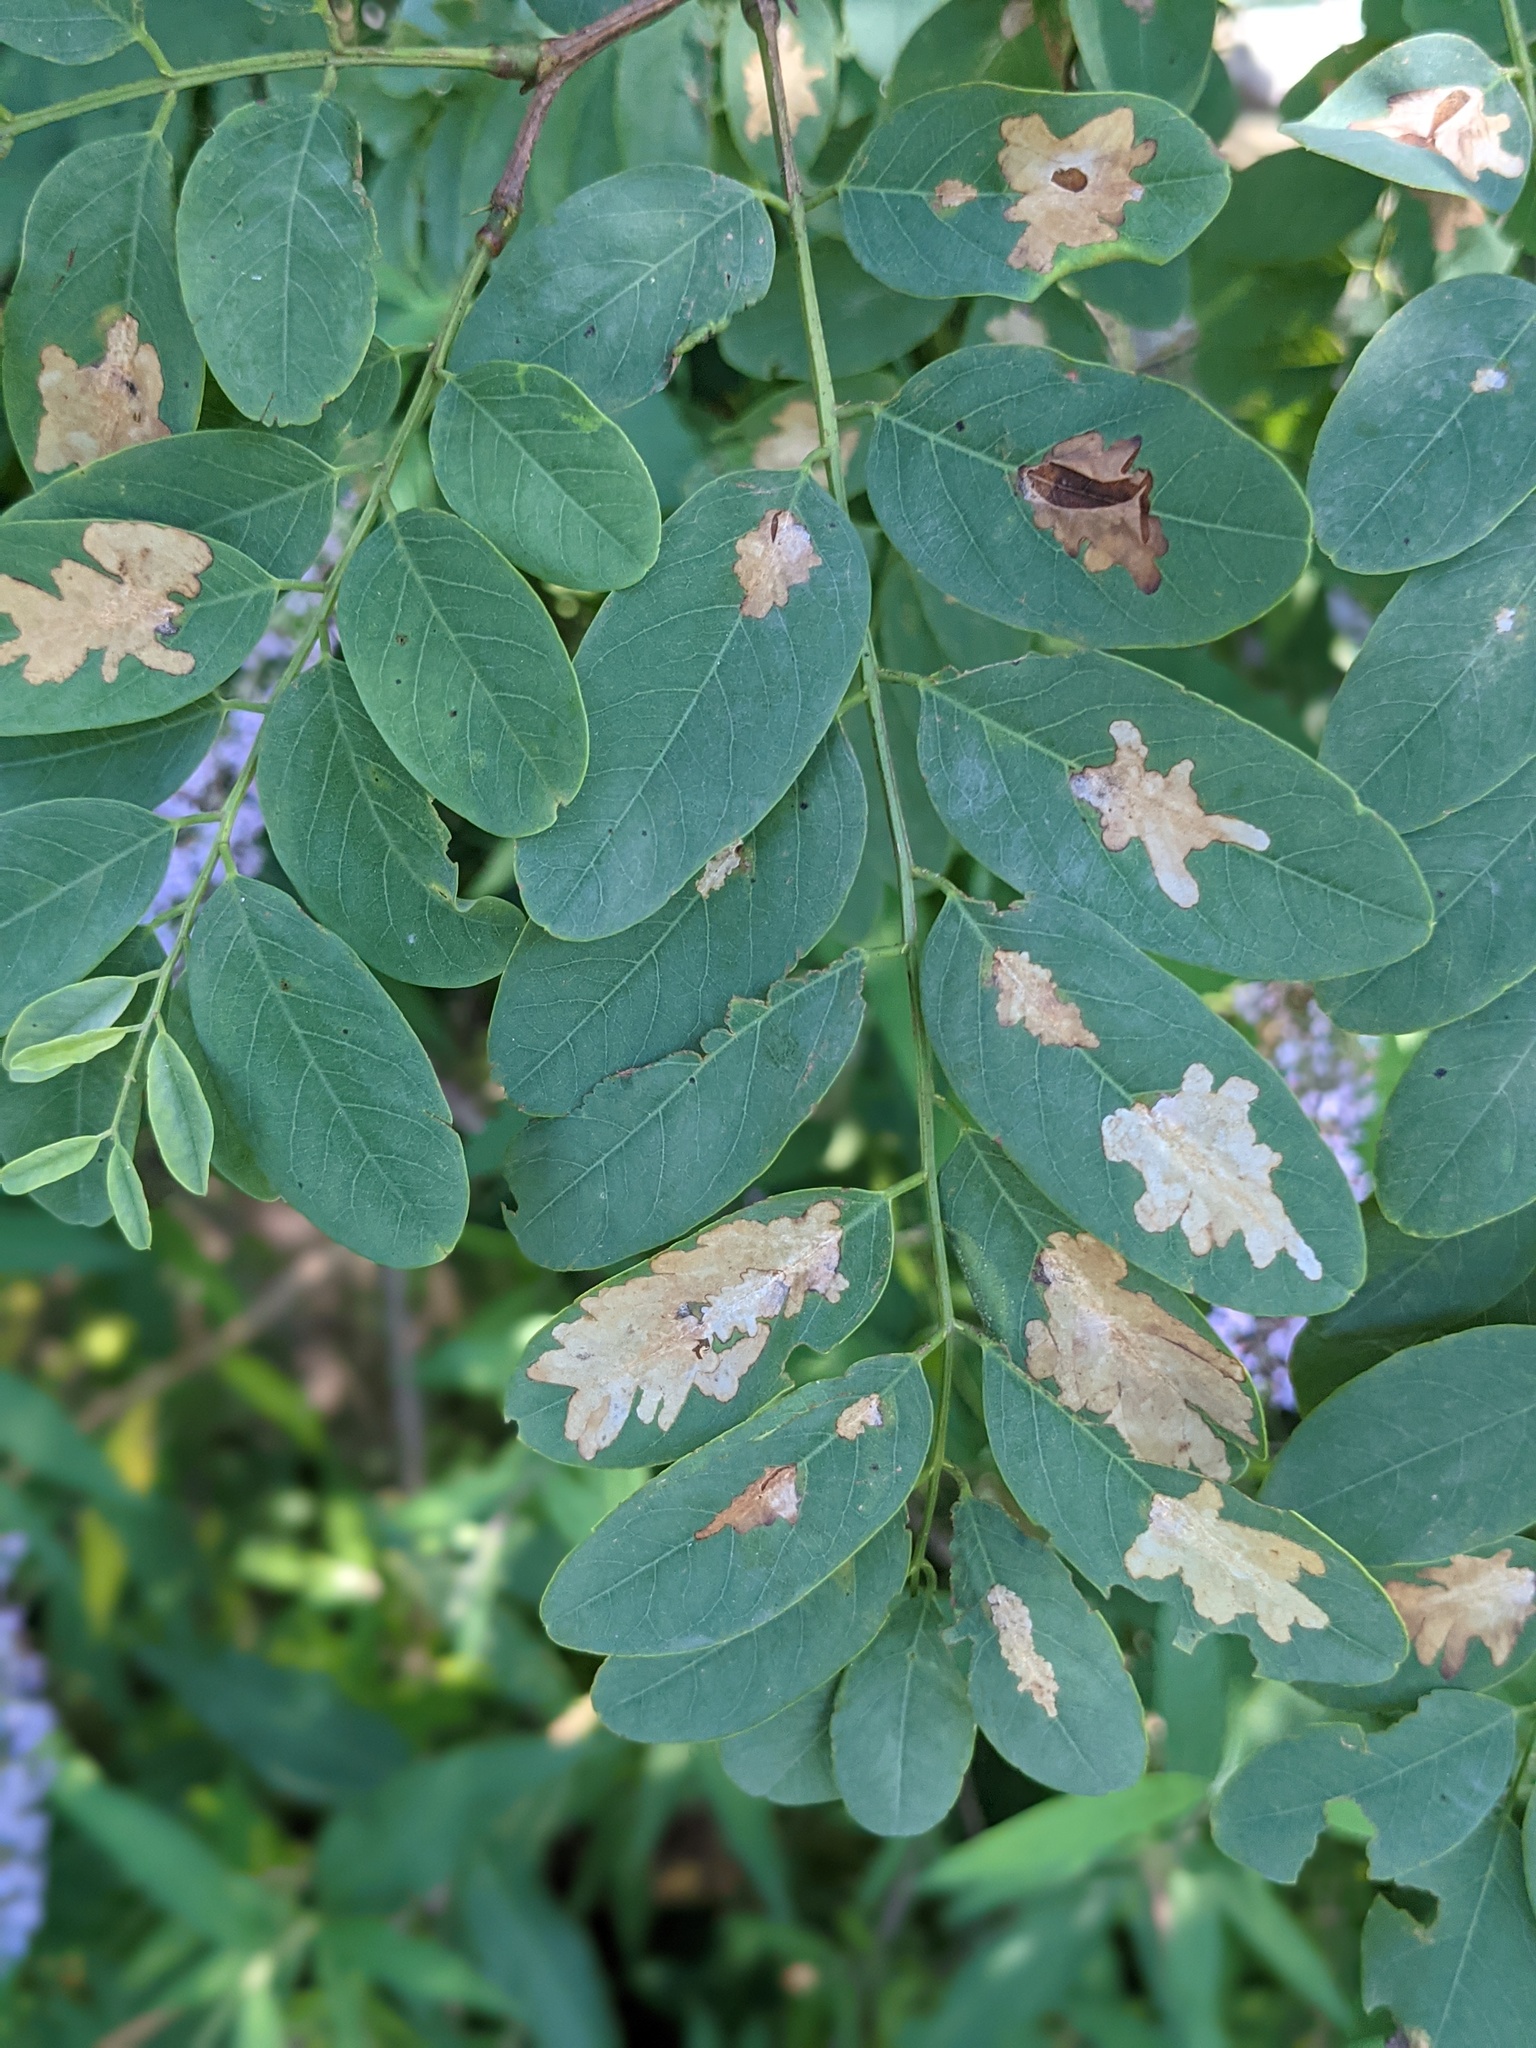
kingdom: Animalia
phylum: Arthropoda
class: Insecta
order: Lepidoptera
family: Gracillariidae
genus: Parectopa
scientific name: Parectopa robiniella
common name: Locust digitate leafminer
